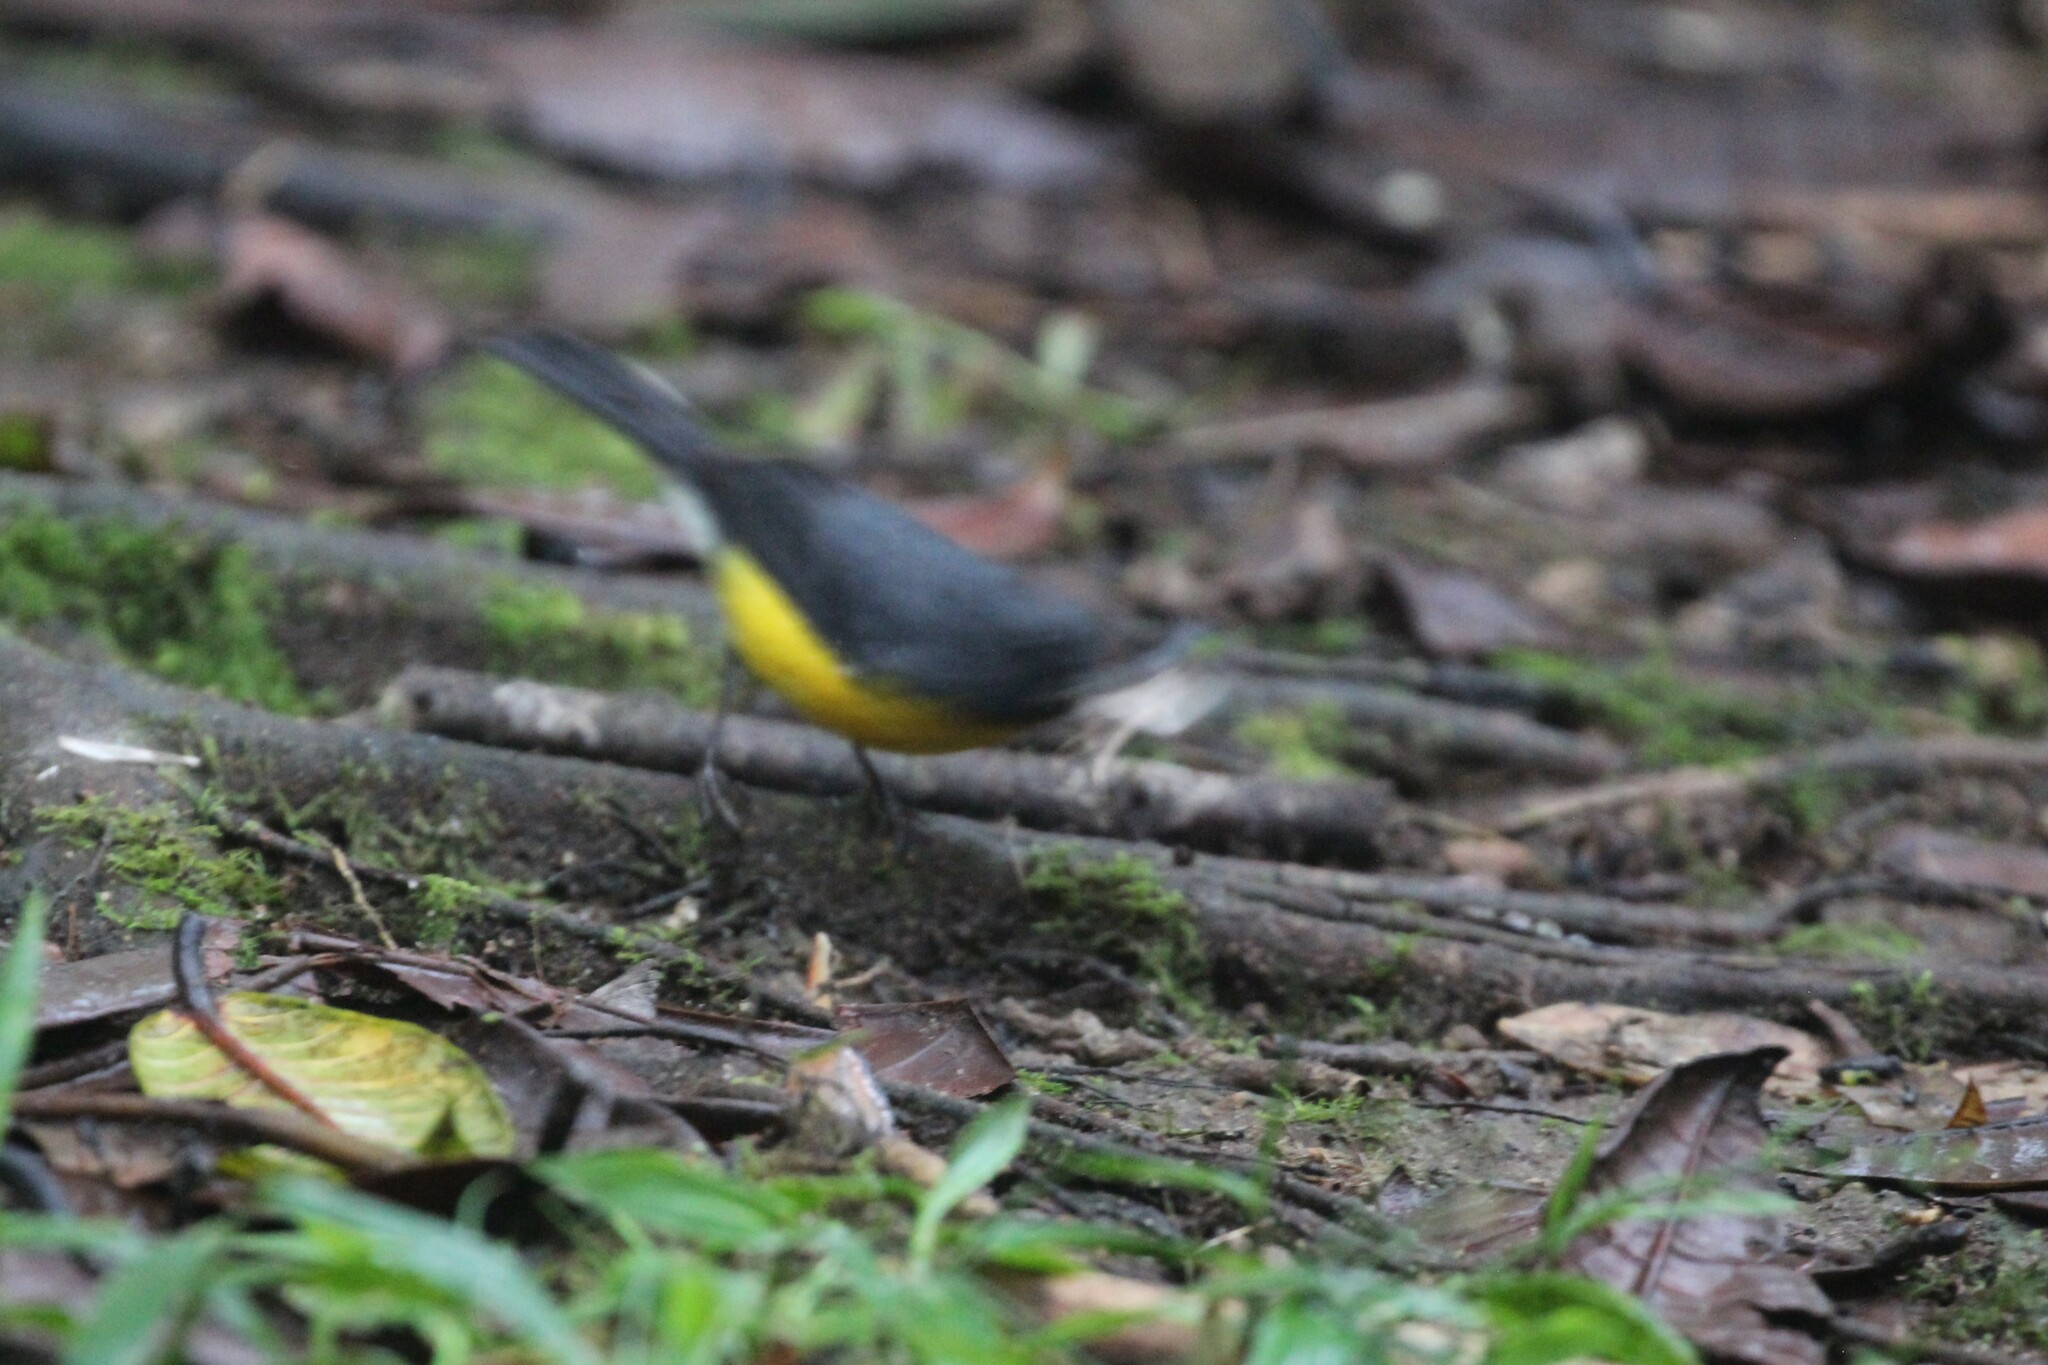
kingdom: Animalia
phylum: Chordata
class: Aves
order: Passeriformes
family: Parulidae
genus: Myioborus
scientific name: Myioborus miniatus
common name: Slate-throated redstart
